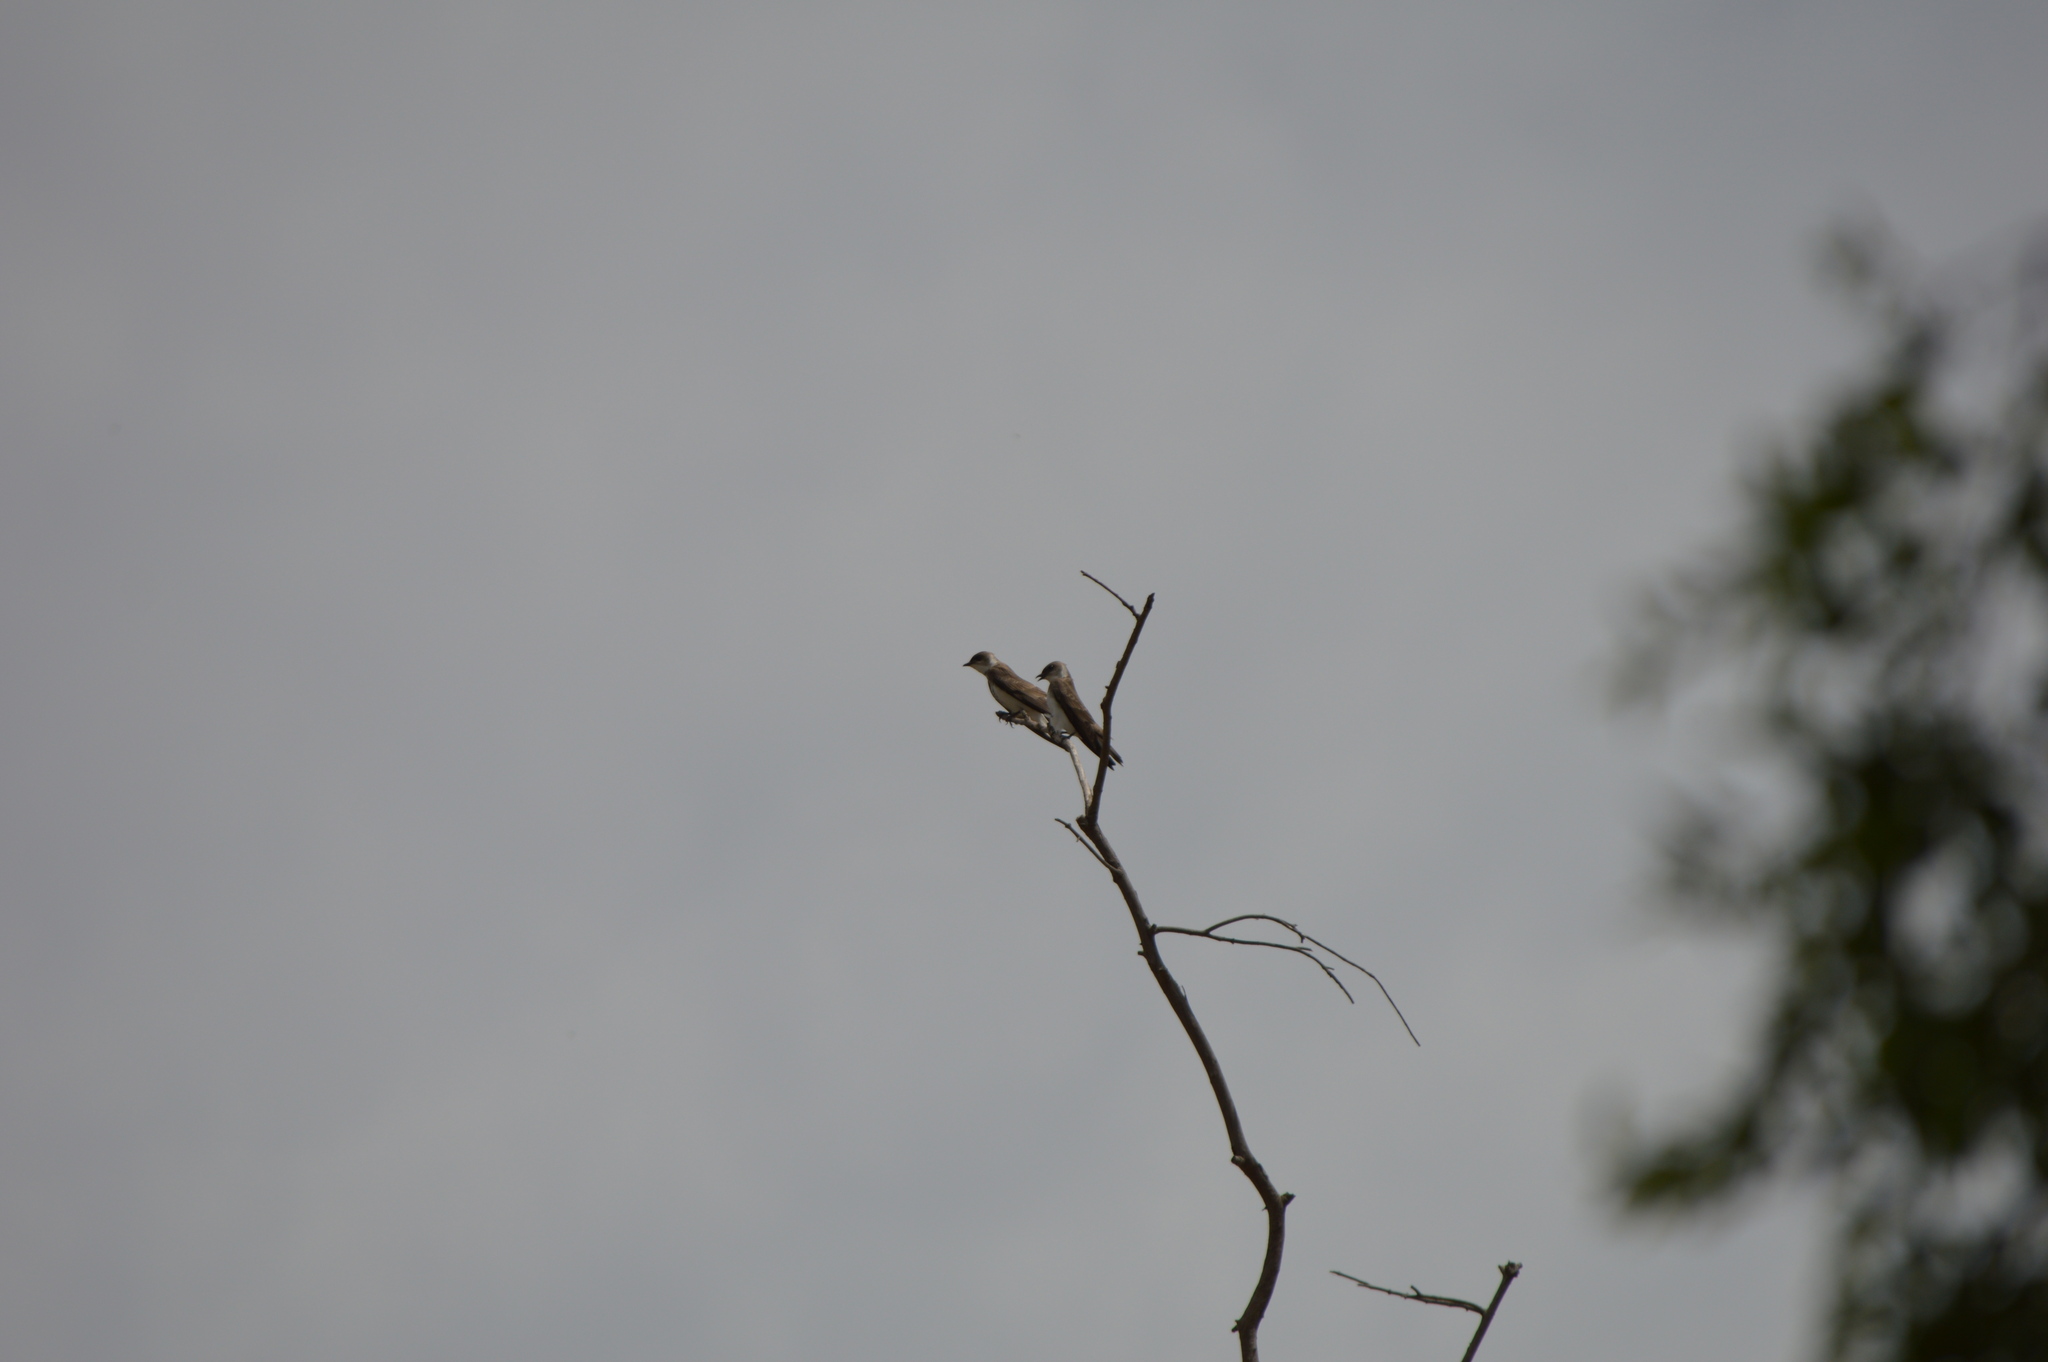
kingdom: Animalia
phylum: Chordata
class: Aves
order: Passeriformes
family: Hirundinidae
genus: Progne
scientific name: Progne tapera
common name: Brown-chested martin
